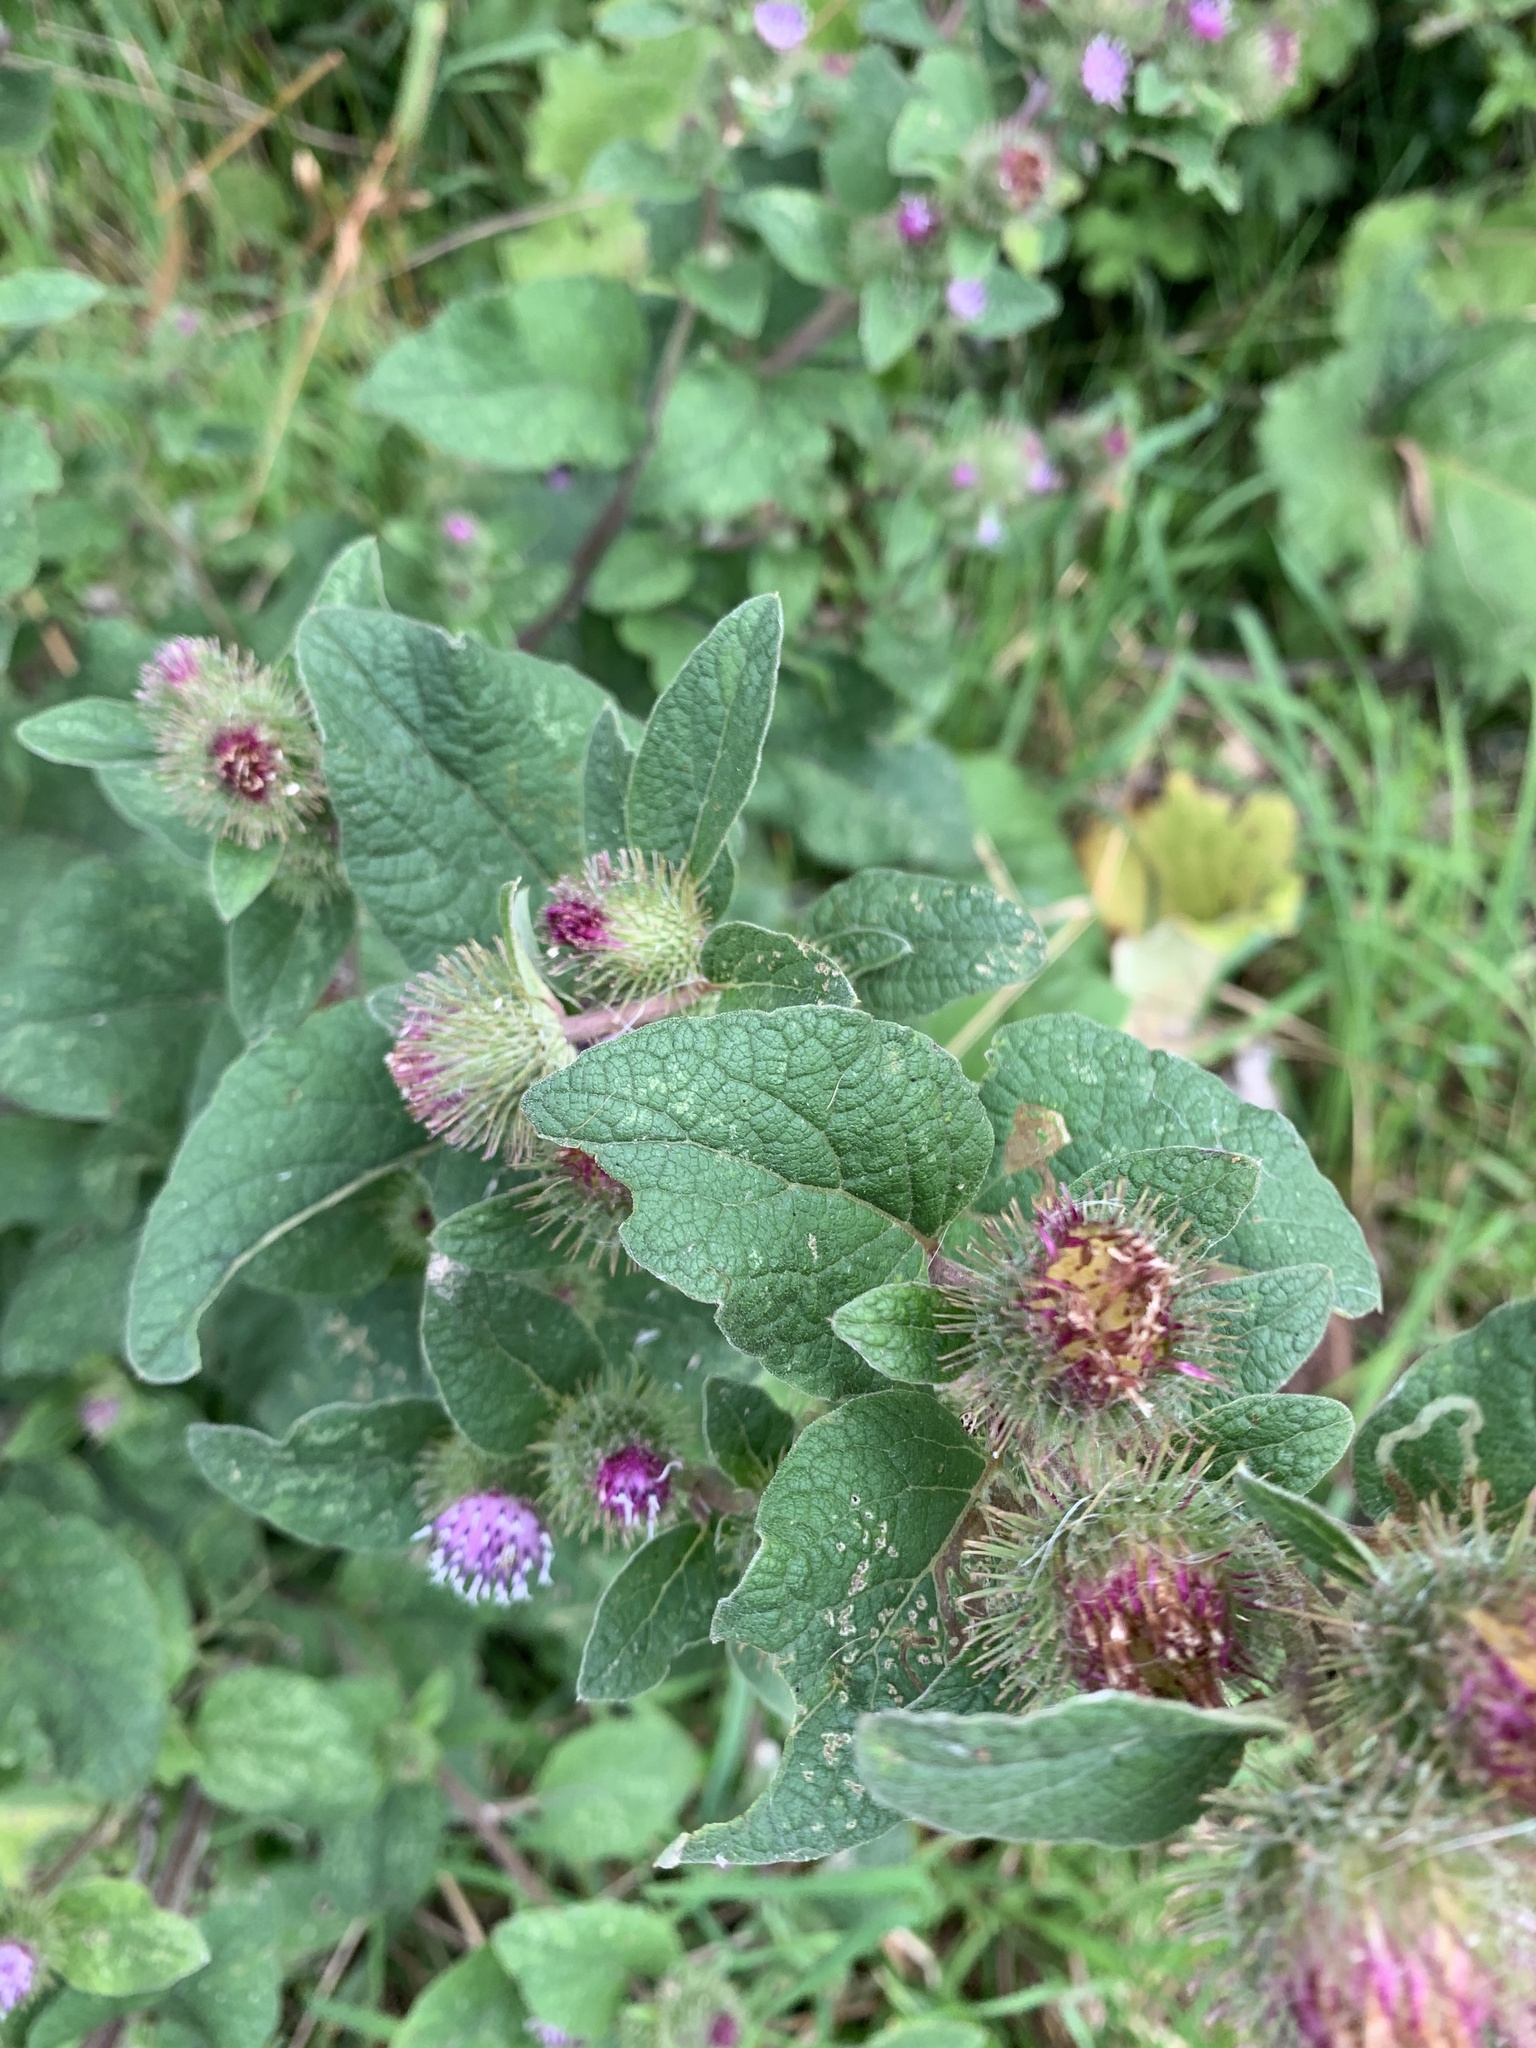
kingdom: Plantae
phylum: Tracheophyta
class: Magnoliopsida
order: Asterales
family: Asteraceae
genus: Arctium
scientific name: Arctium minus
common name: Lesser burdock
